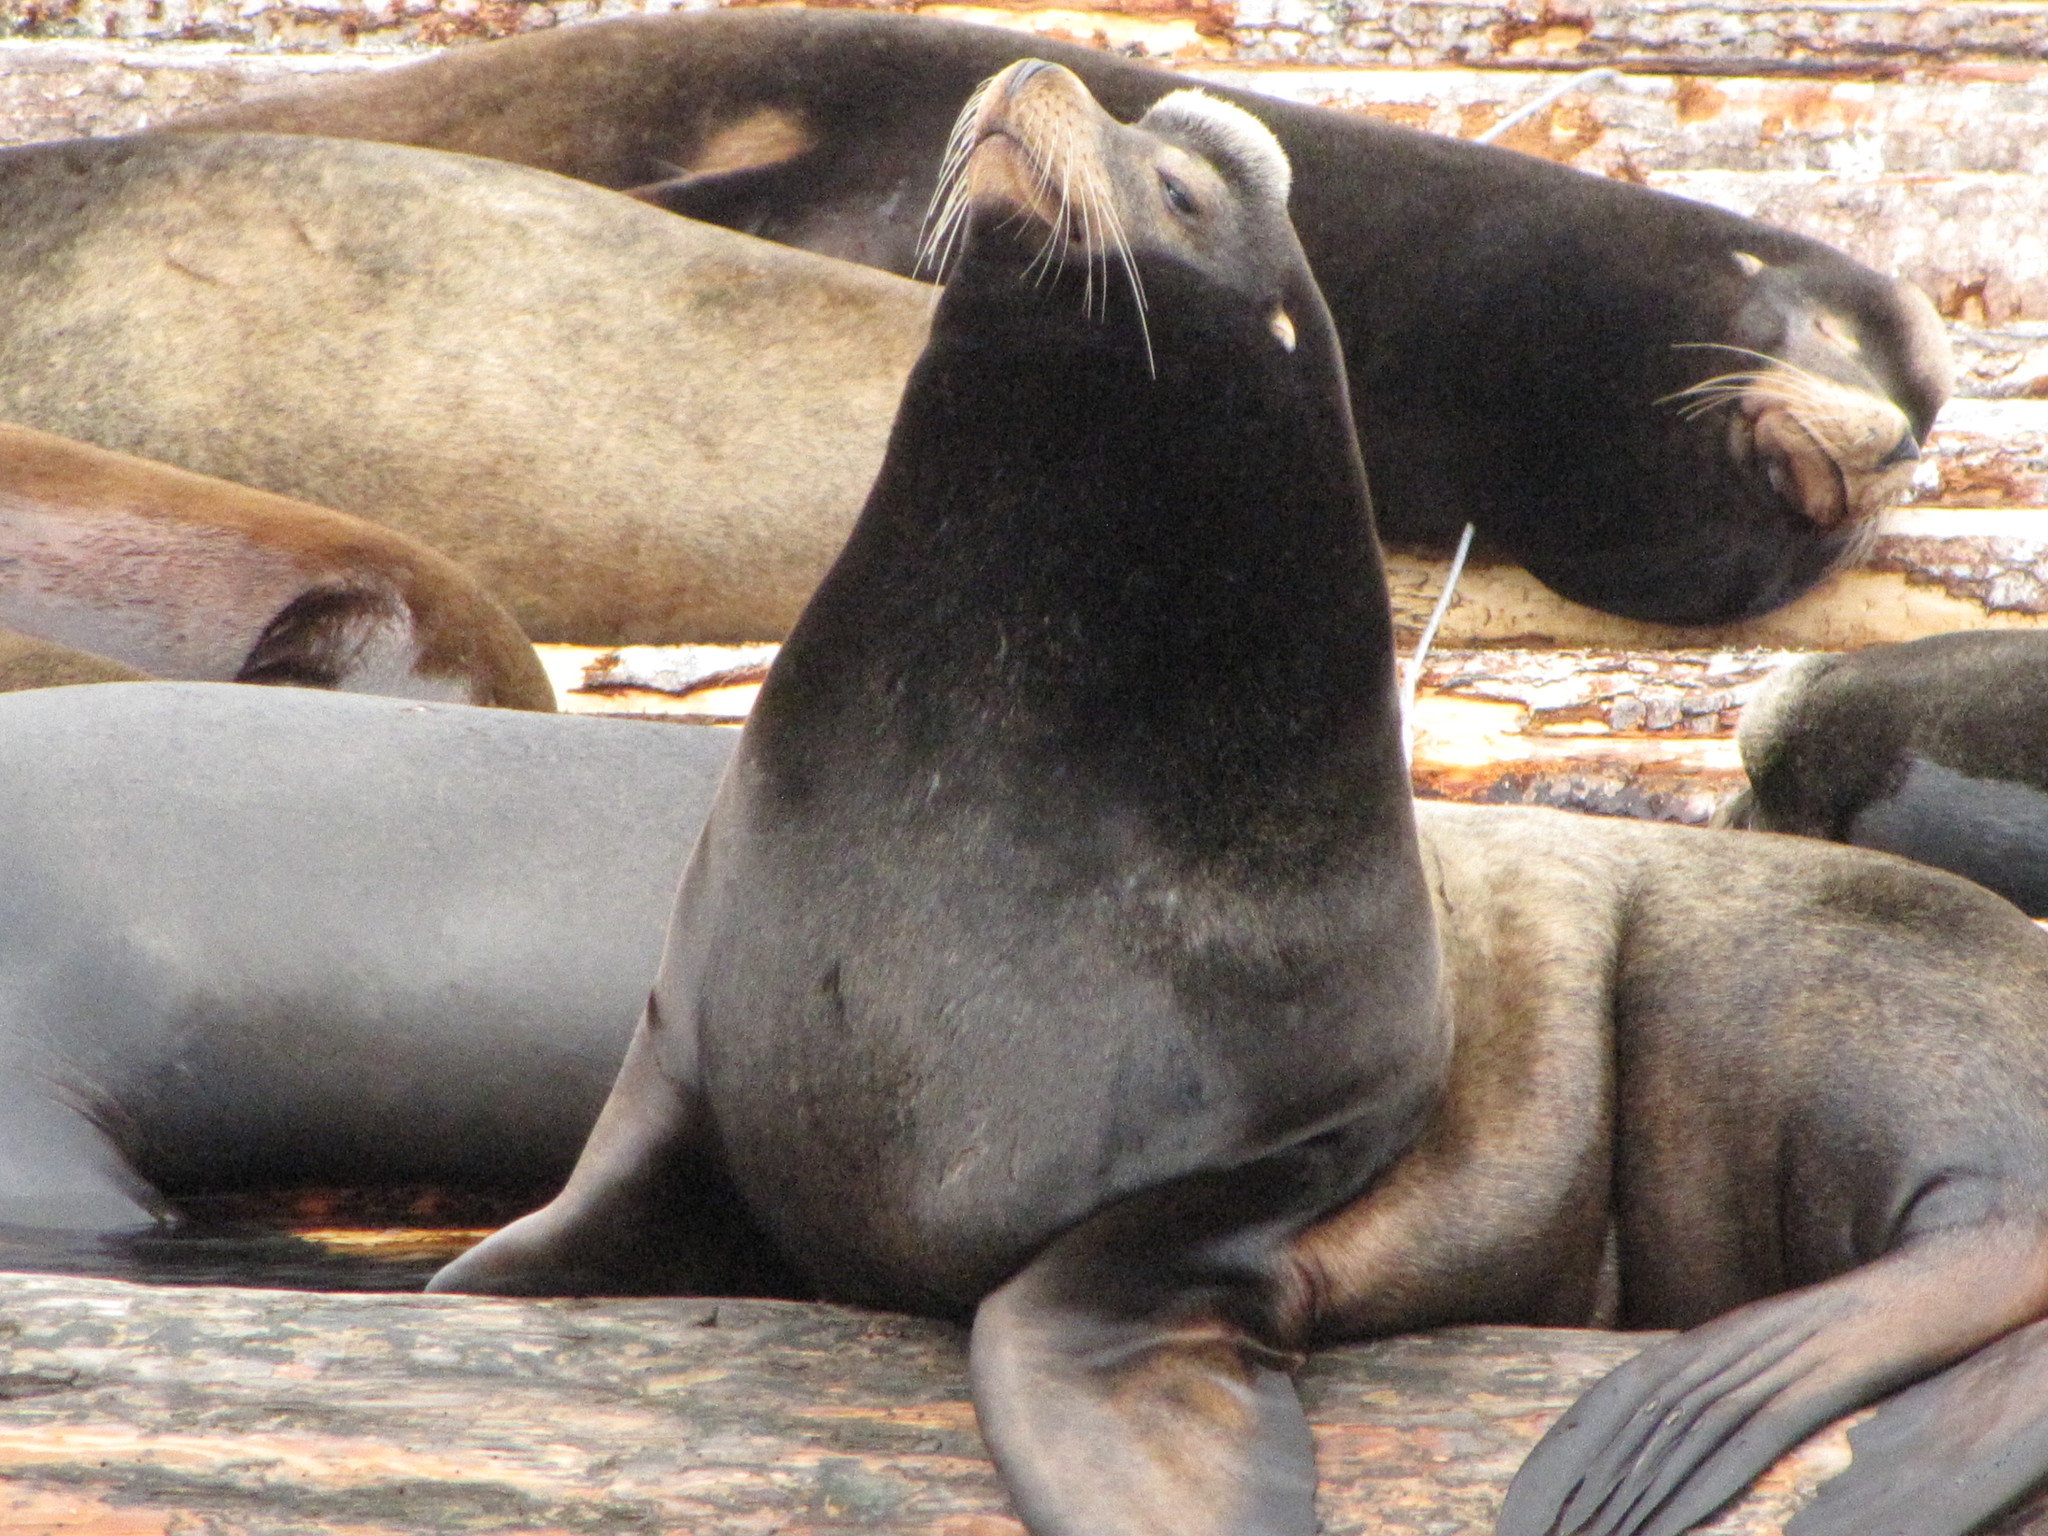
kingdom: Animalia
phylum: Chordata
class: Mammalia
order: Carnivora
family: Otariidae
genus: Zalophus
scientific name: Zalophus californianus
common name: California sea lion
